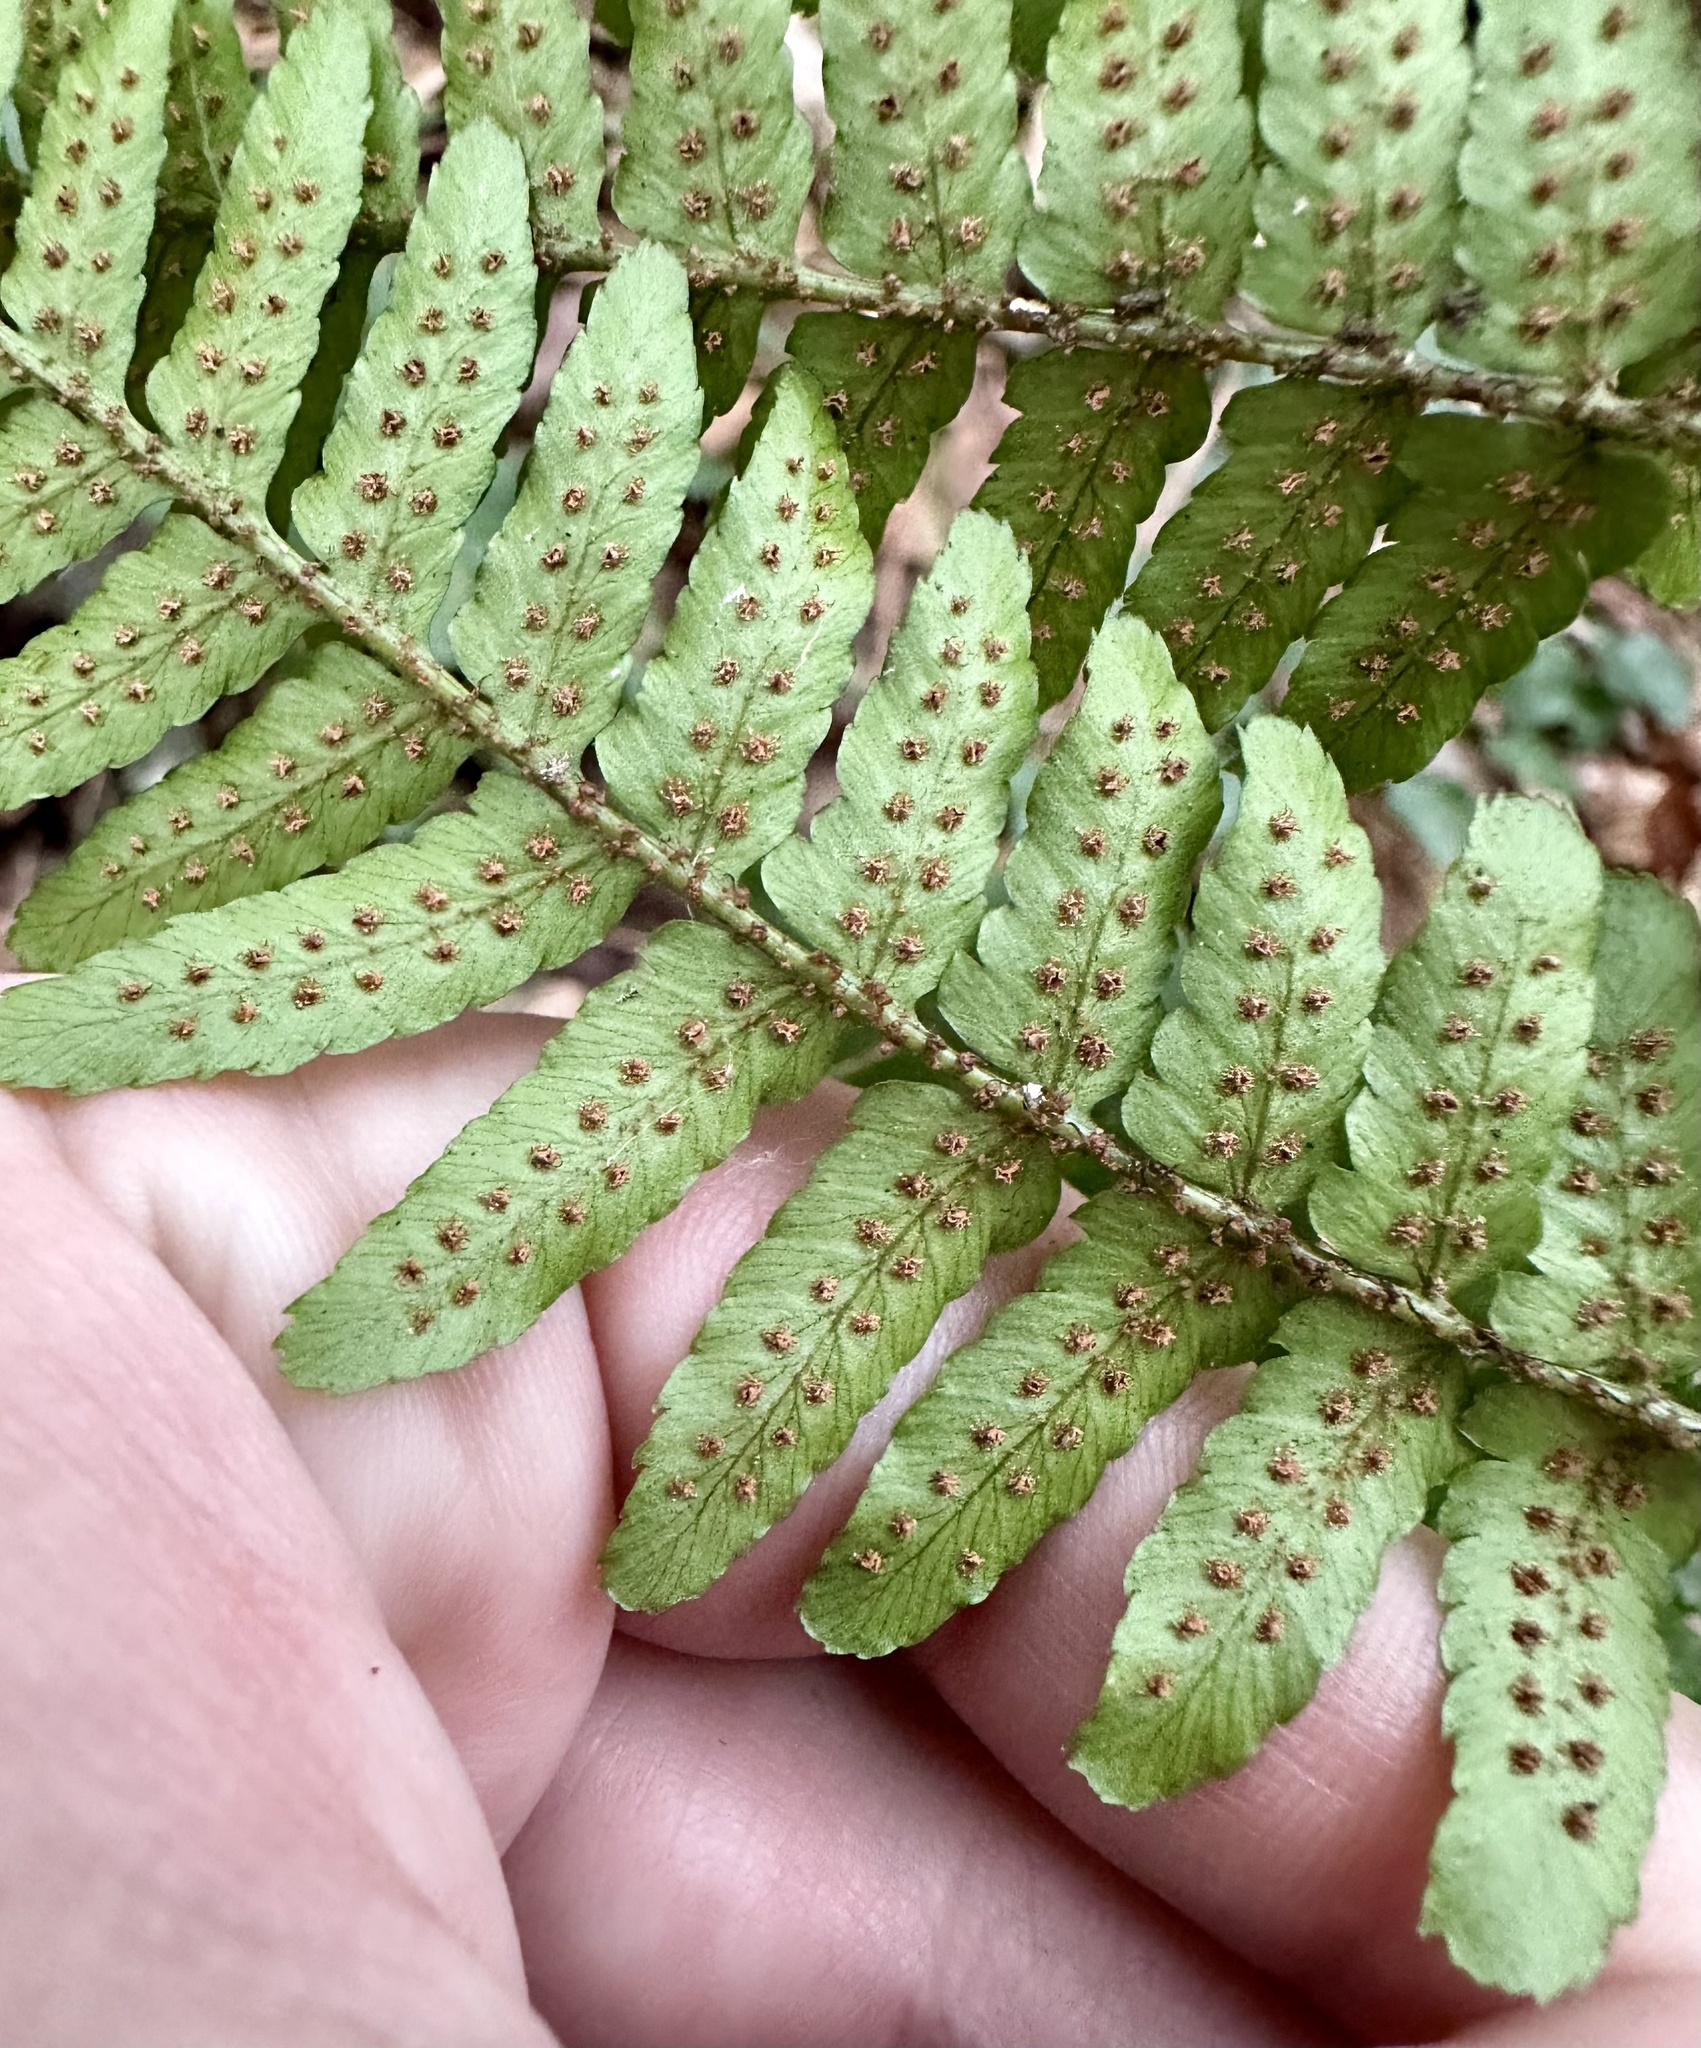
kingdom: Plantae
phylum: Tracheophyta
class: Polypodiopsida
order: Polypodiales
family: Dryopteridaceae
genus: Dryopteris
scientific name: Dryopteris erythrosora
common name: Autumn fern
